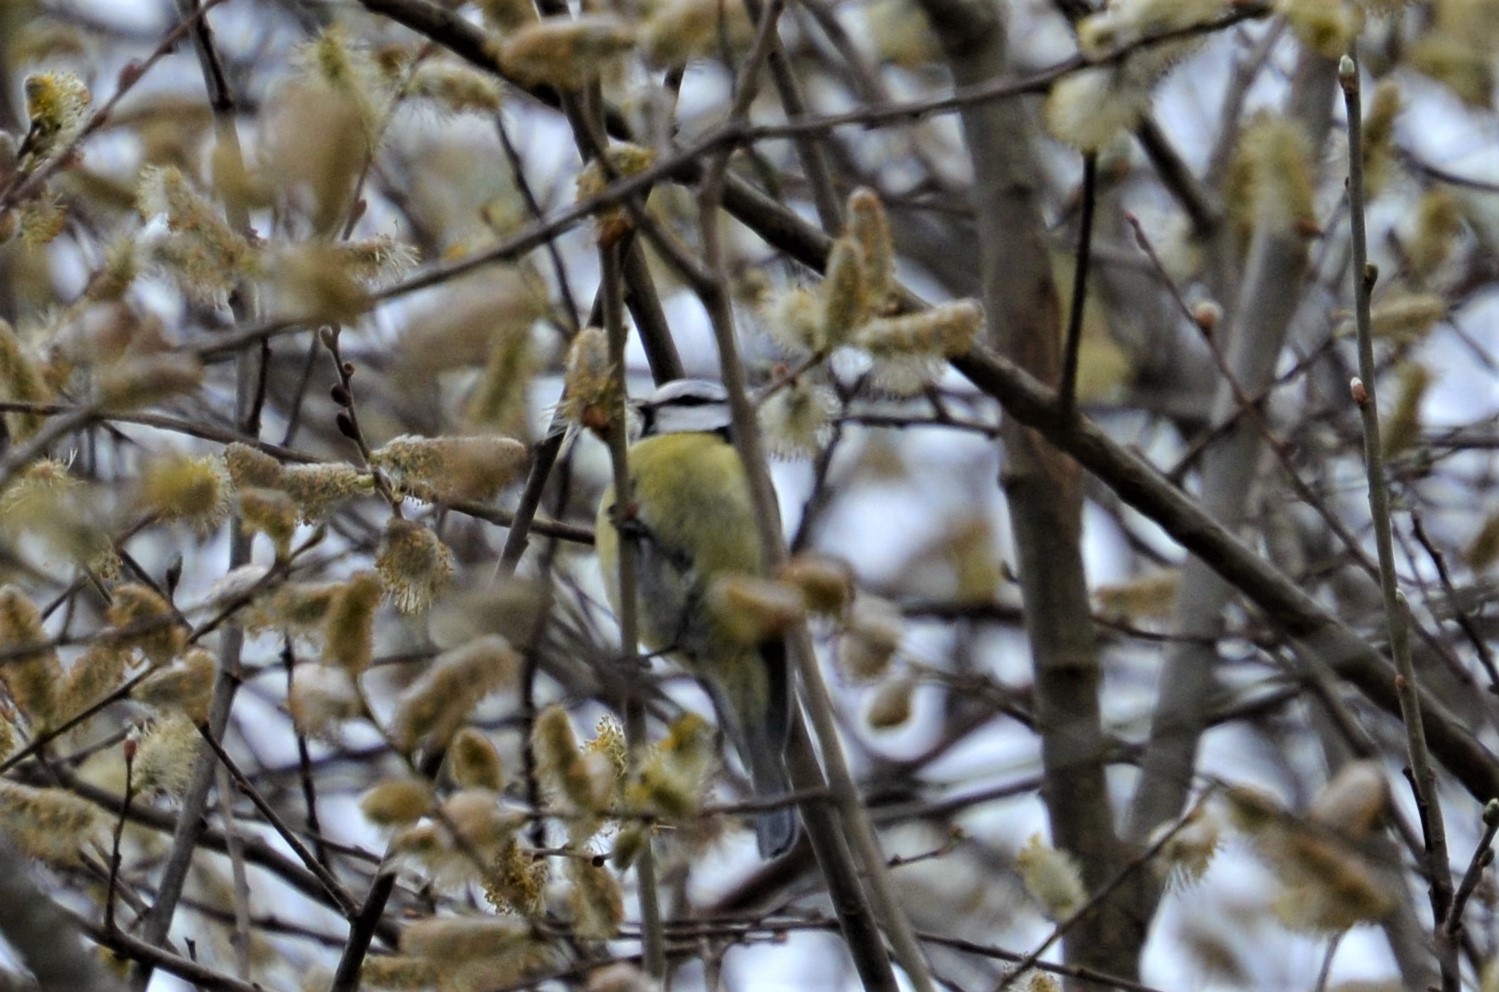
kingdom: Animalia
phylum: Chordata
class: Aves
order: Passeriformes
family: Paridae
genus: Cyanistes
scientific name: Cyanistes caeruleus
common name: Eurasian blue tit
